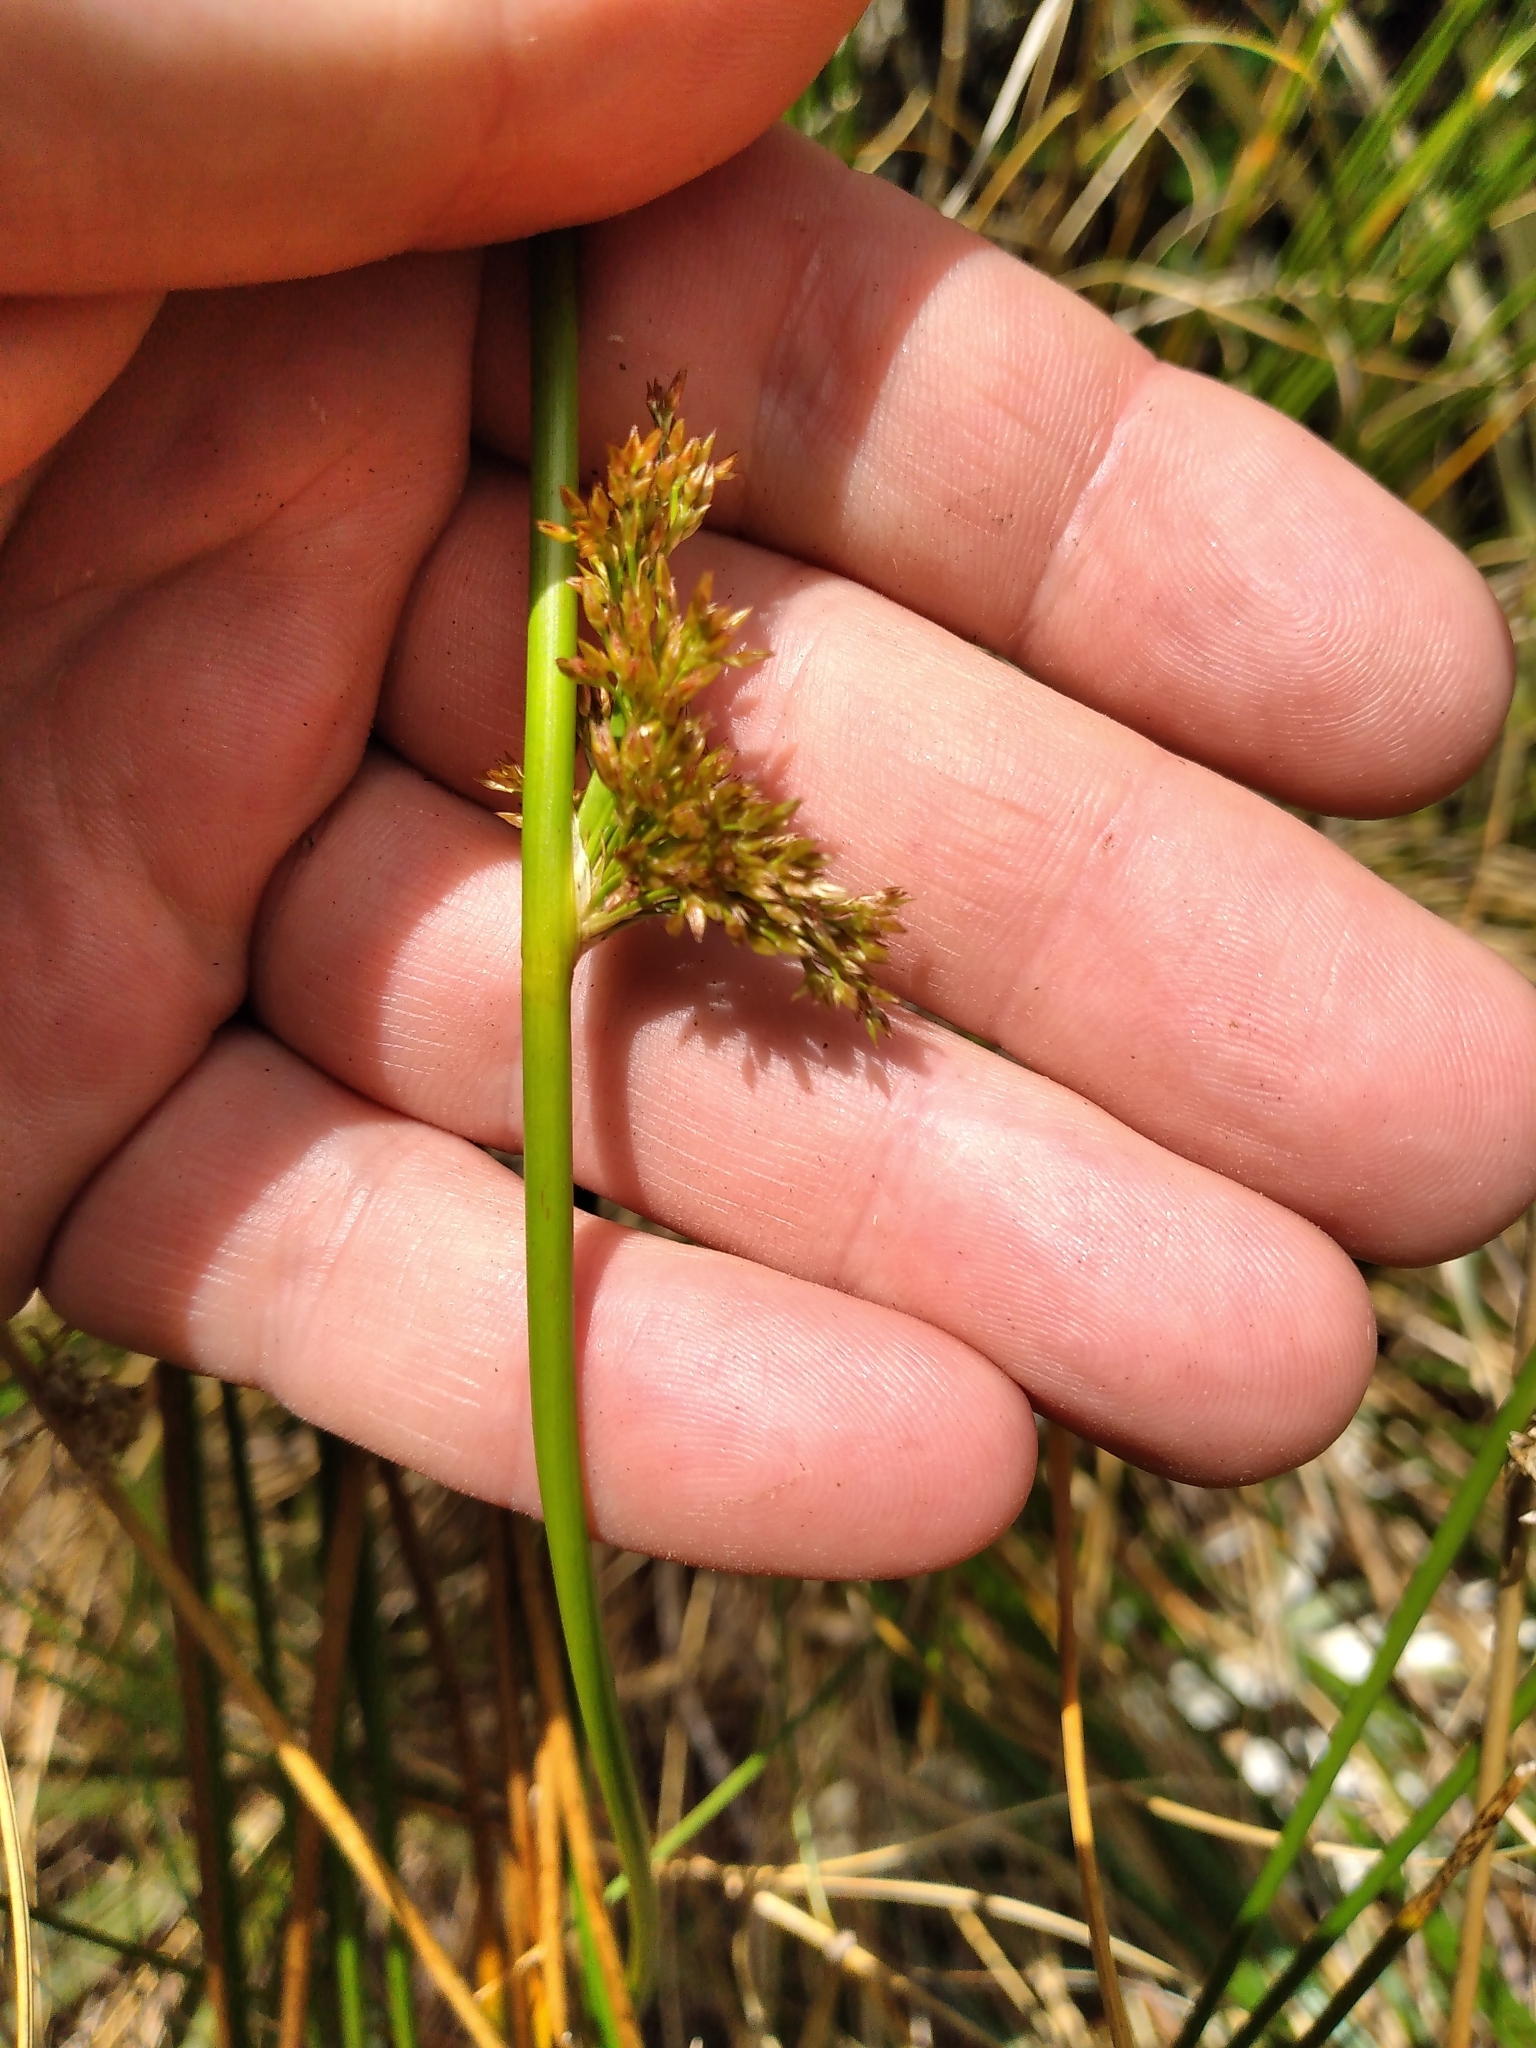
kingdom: Plantae
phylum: Tracheophyta
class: Liliopsida
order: Poales
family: Juncaceae
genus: Juncus
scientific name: Juncus effusus
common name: Soft rush
